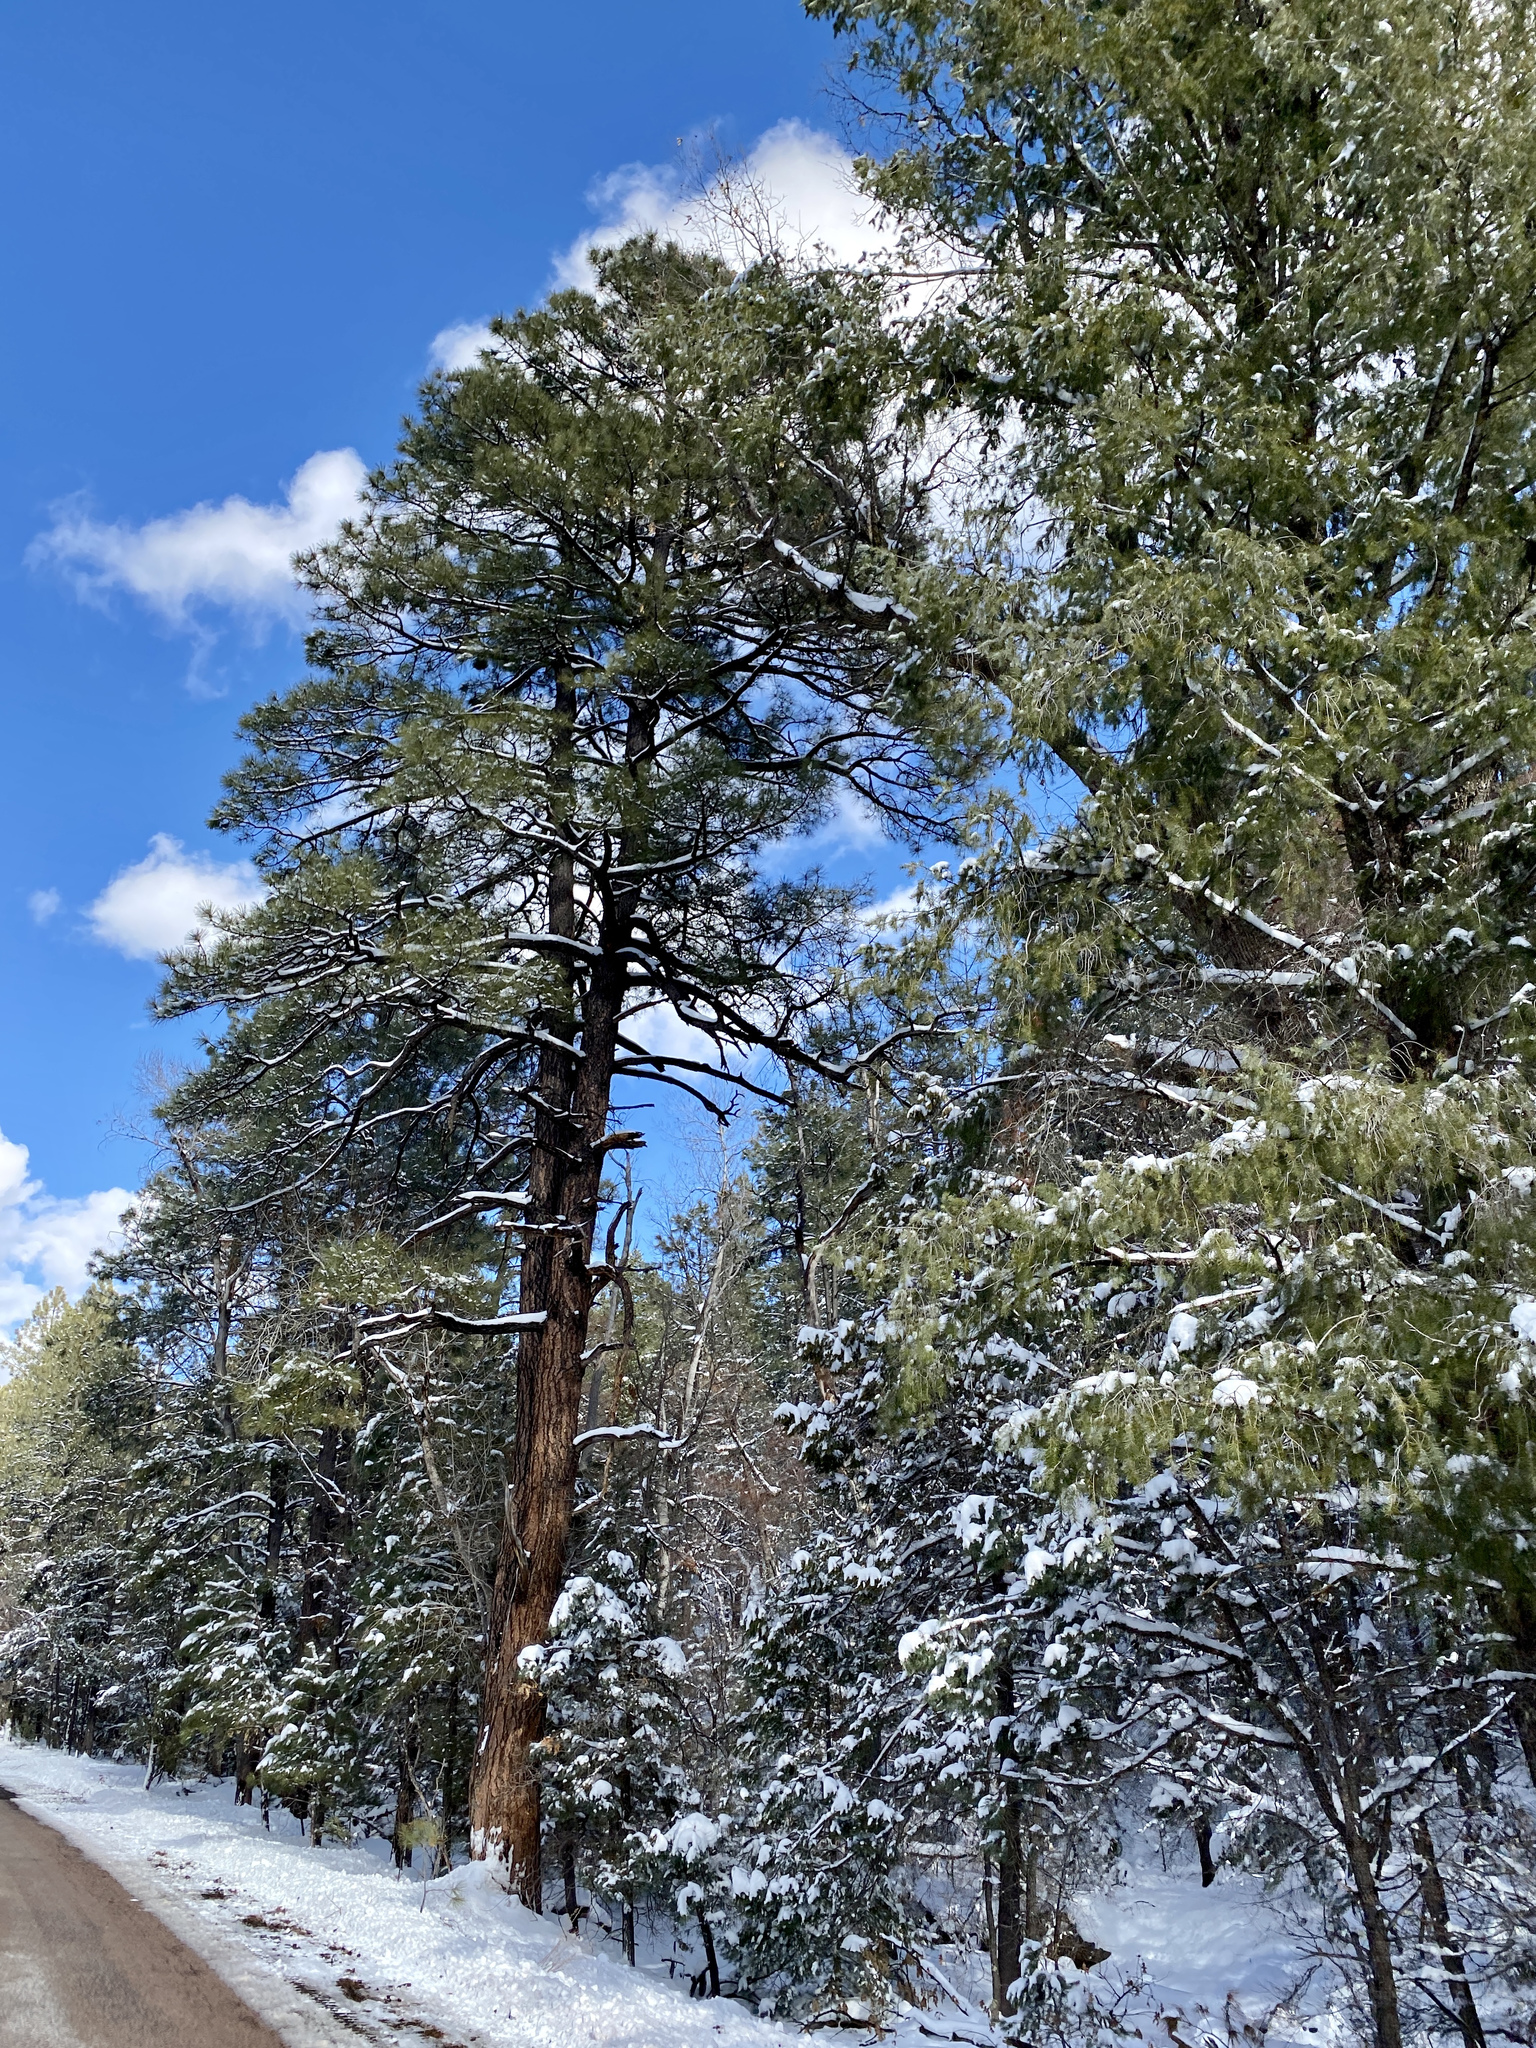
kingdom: Plantae
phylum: Tracheophyta
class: Pinopsida
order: Pinales
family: Pinaceae
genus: Pinus
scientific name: Pinus ponderosa
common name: Western yellow-pine
